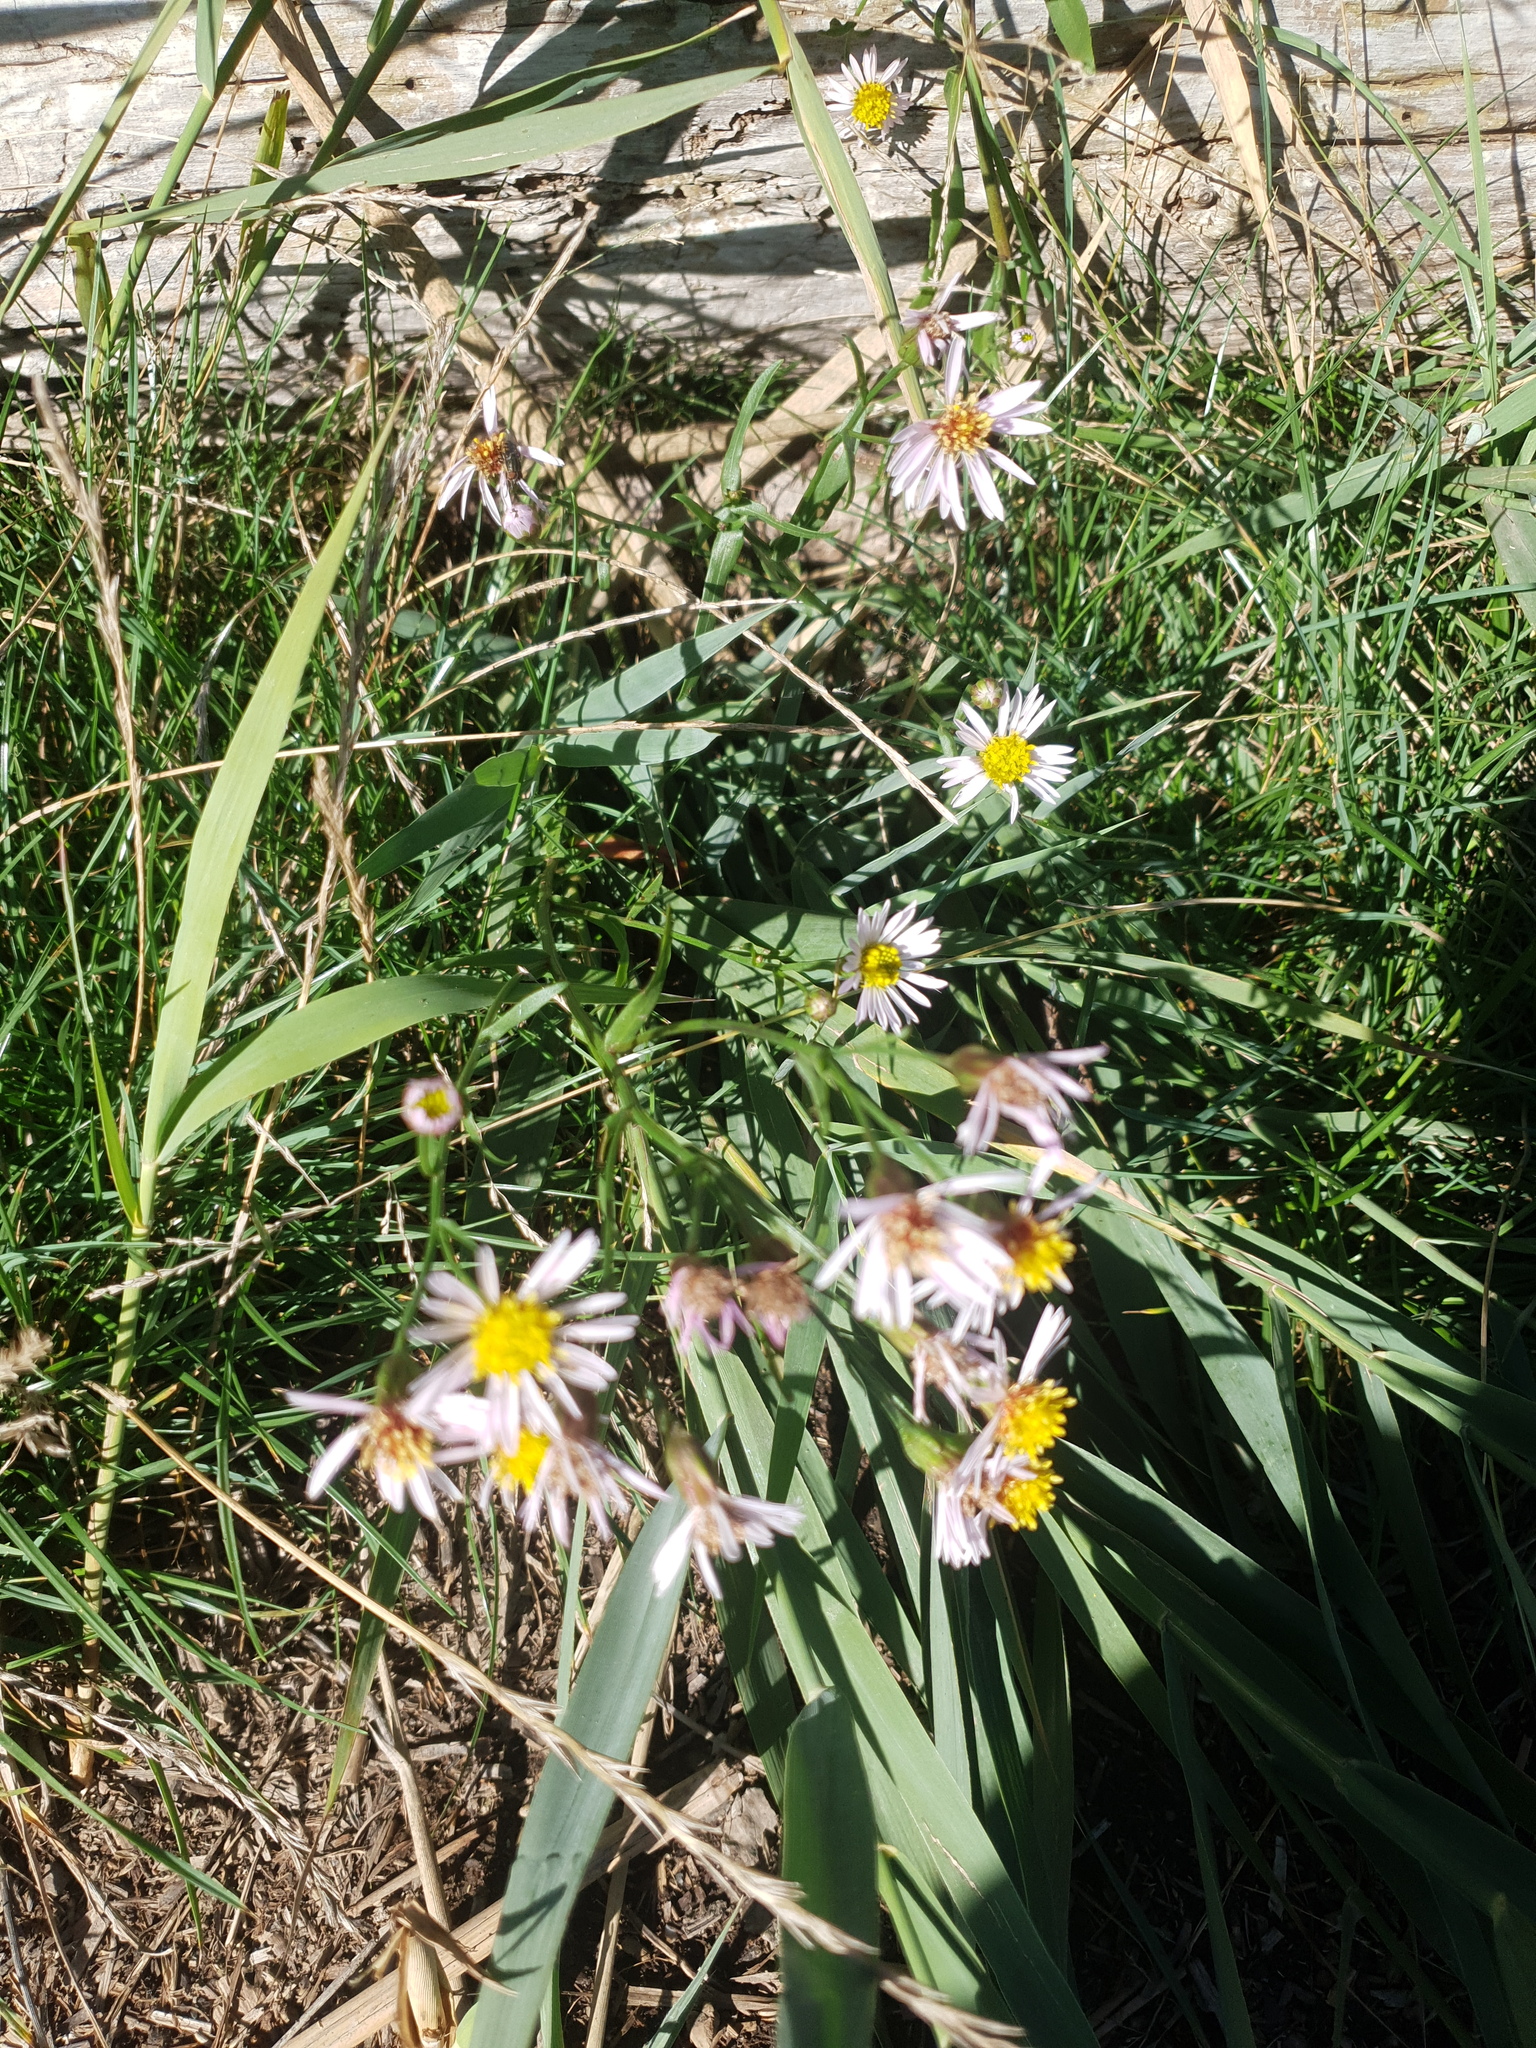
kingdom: Plantae
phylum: Tracheophyta
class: Magnoliopsida
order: Asterales
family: Asteraceae
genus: Tripolium
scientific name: Tripolium pannonicum
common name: Sea aster
